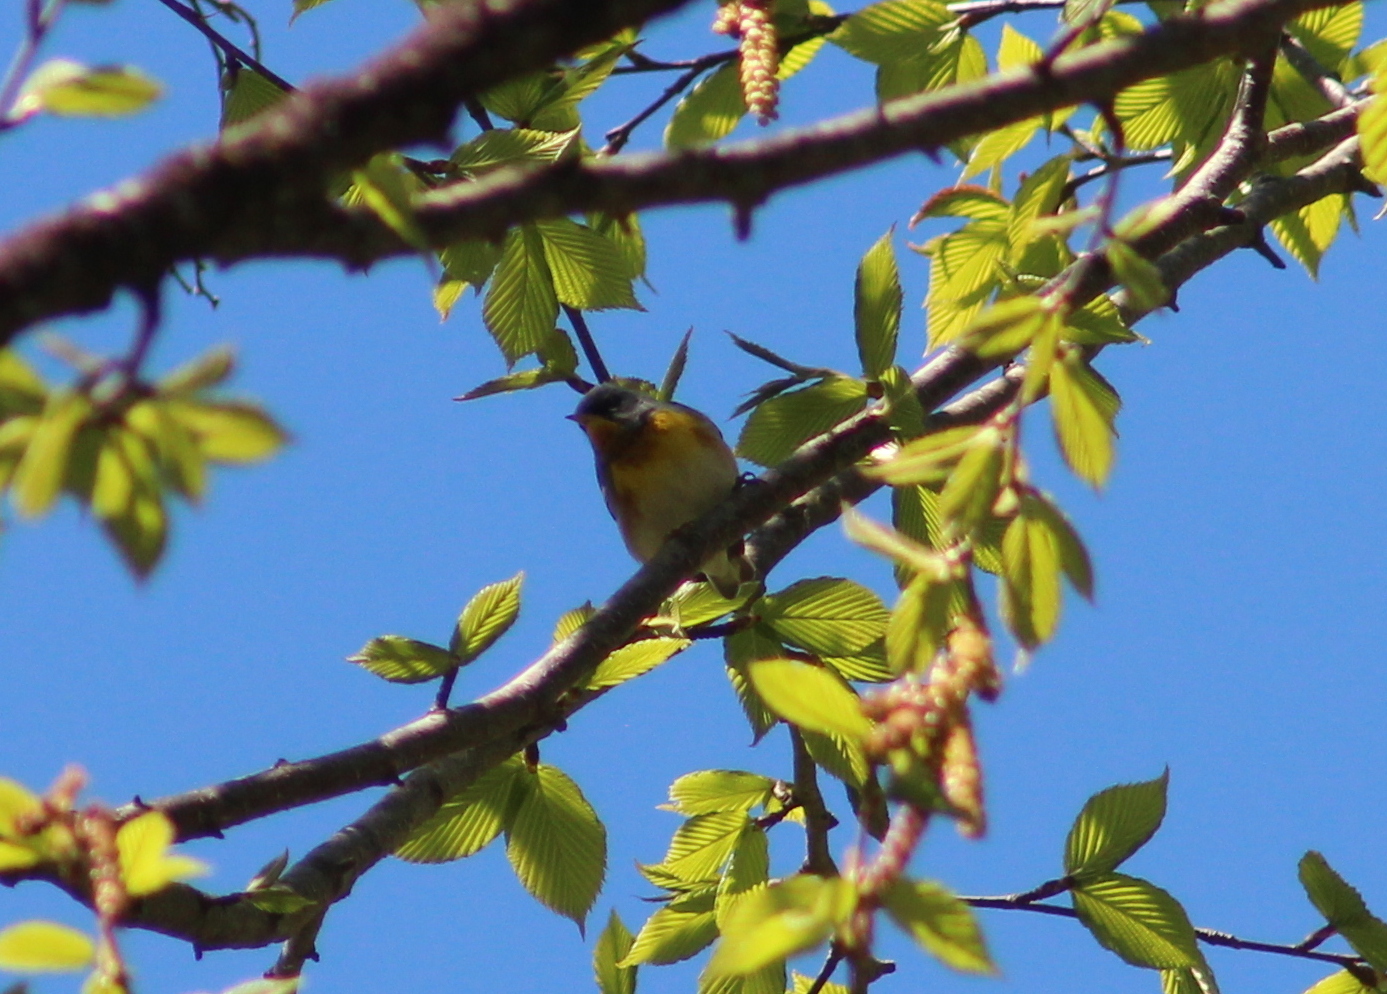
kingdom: Animalia
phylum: Chordata
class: Aves
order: Passeriformes
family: Parulidae
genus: Setophaga
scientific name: Setophaga americana
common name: Northern parula
